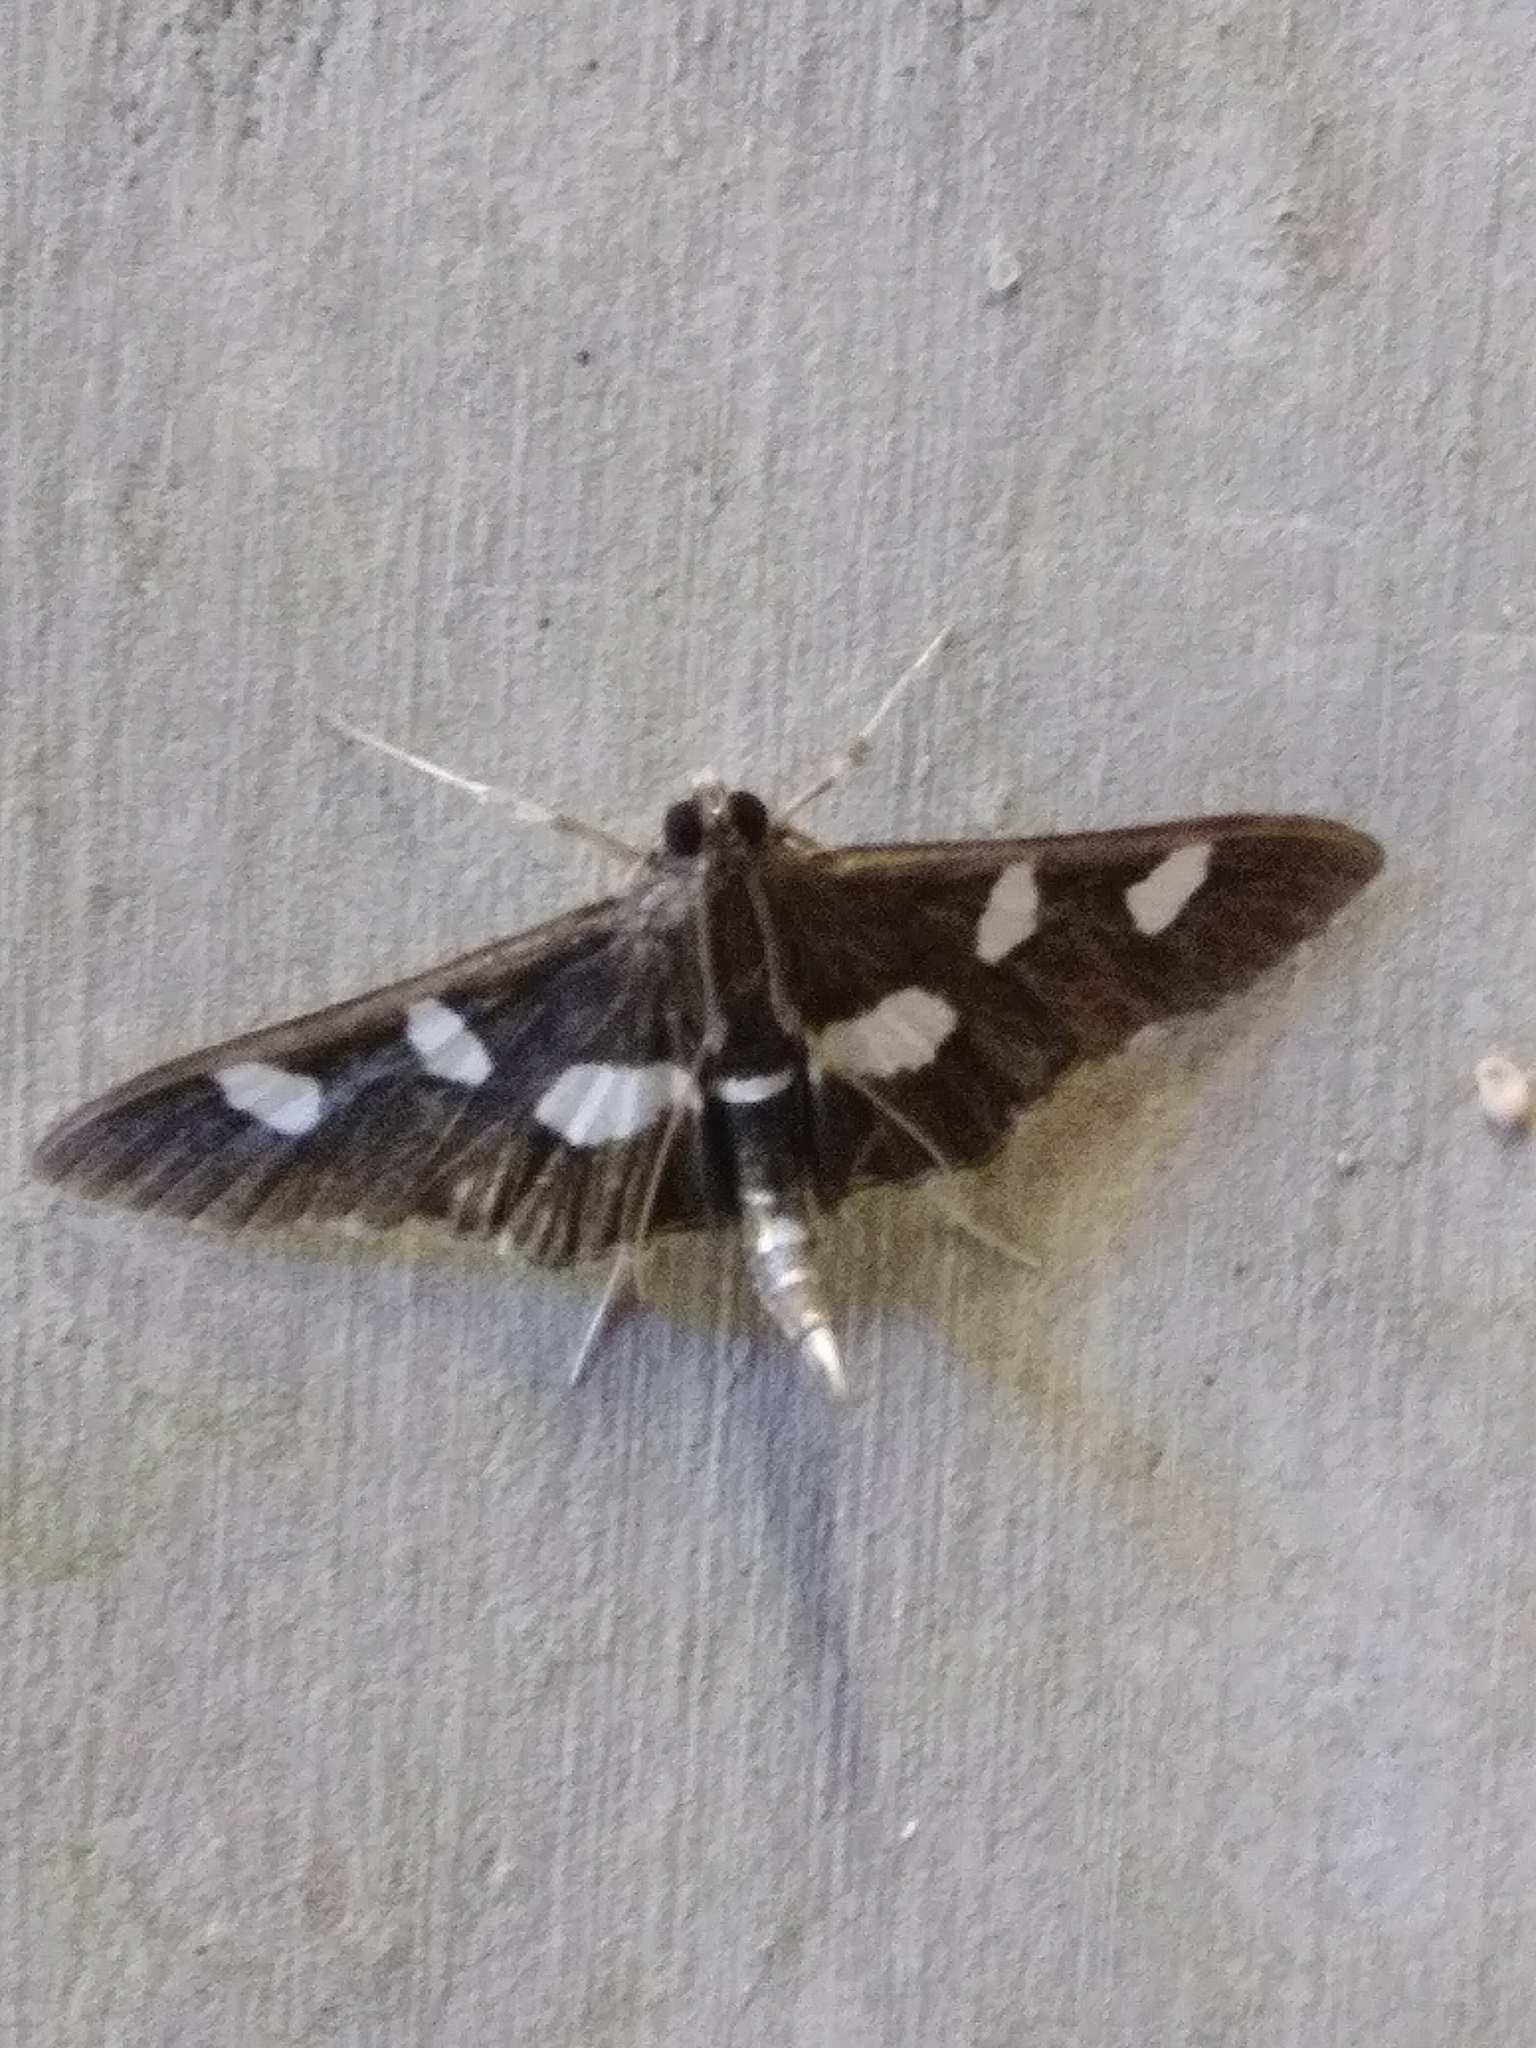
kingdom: Animalia
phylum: Arthropoda
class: Insecta
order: Lepidoptera
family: Crambidae
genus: Desmia
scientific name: Desmia
